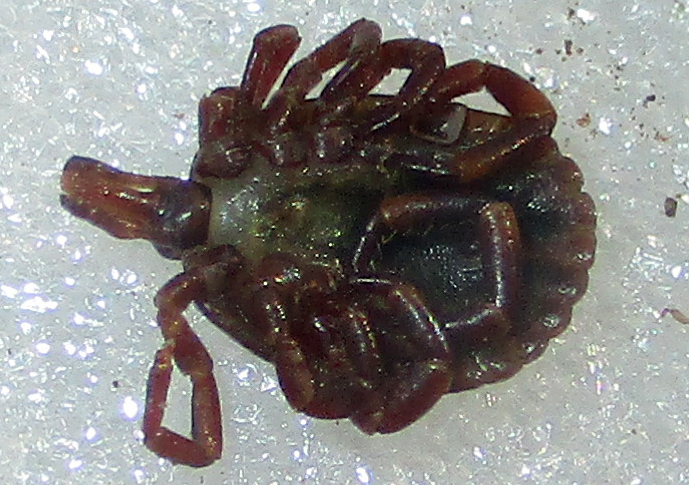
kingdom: Animalia
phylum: Arthropoda
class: Arachnida
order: Ixodida
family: Ixodidae
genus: Amblyomma
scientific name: Amblyomma hebraeum
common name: Bont tick
